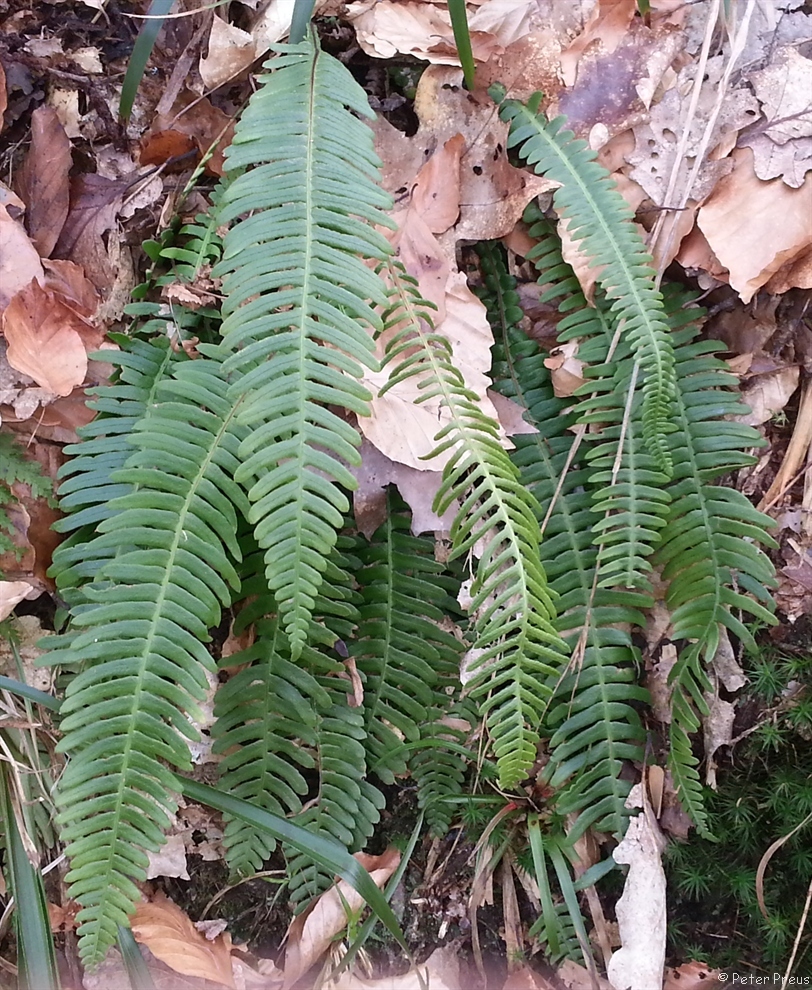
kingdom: Plantae
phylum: Tracheophyta
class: Polypodiopsida
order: Polypodiales
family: Blechnaceae
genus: Struthiopteris
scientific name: Struthiopteris spicant
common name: Deer fern
